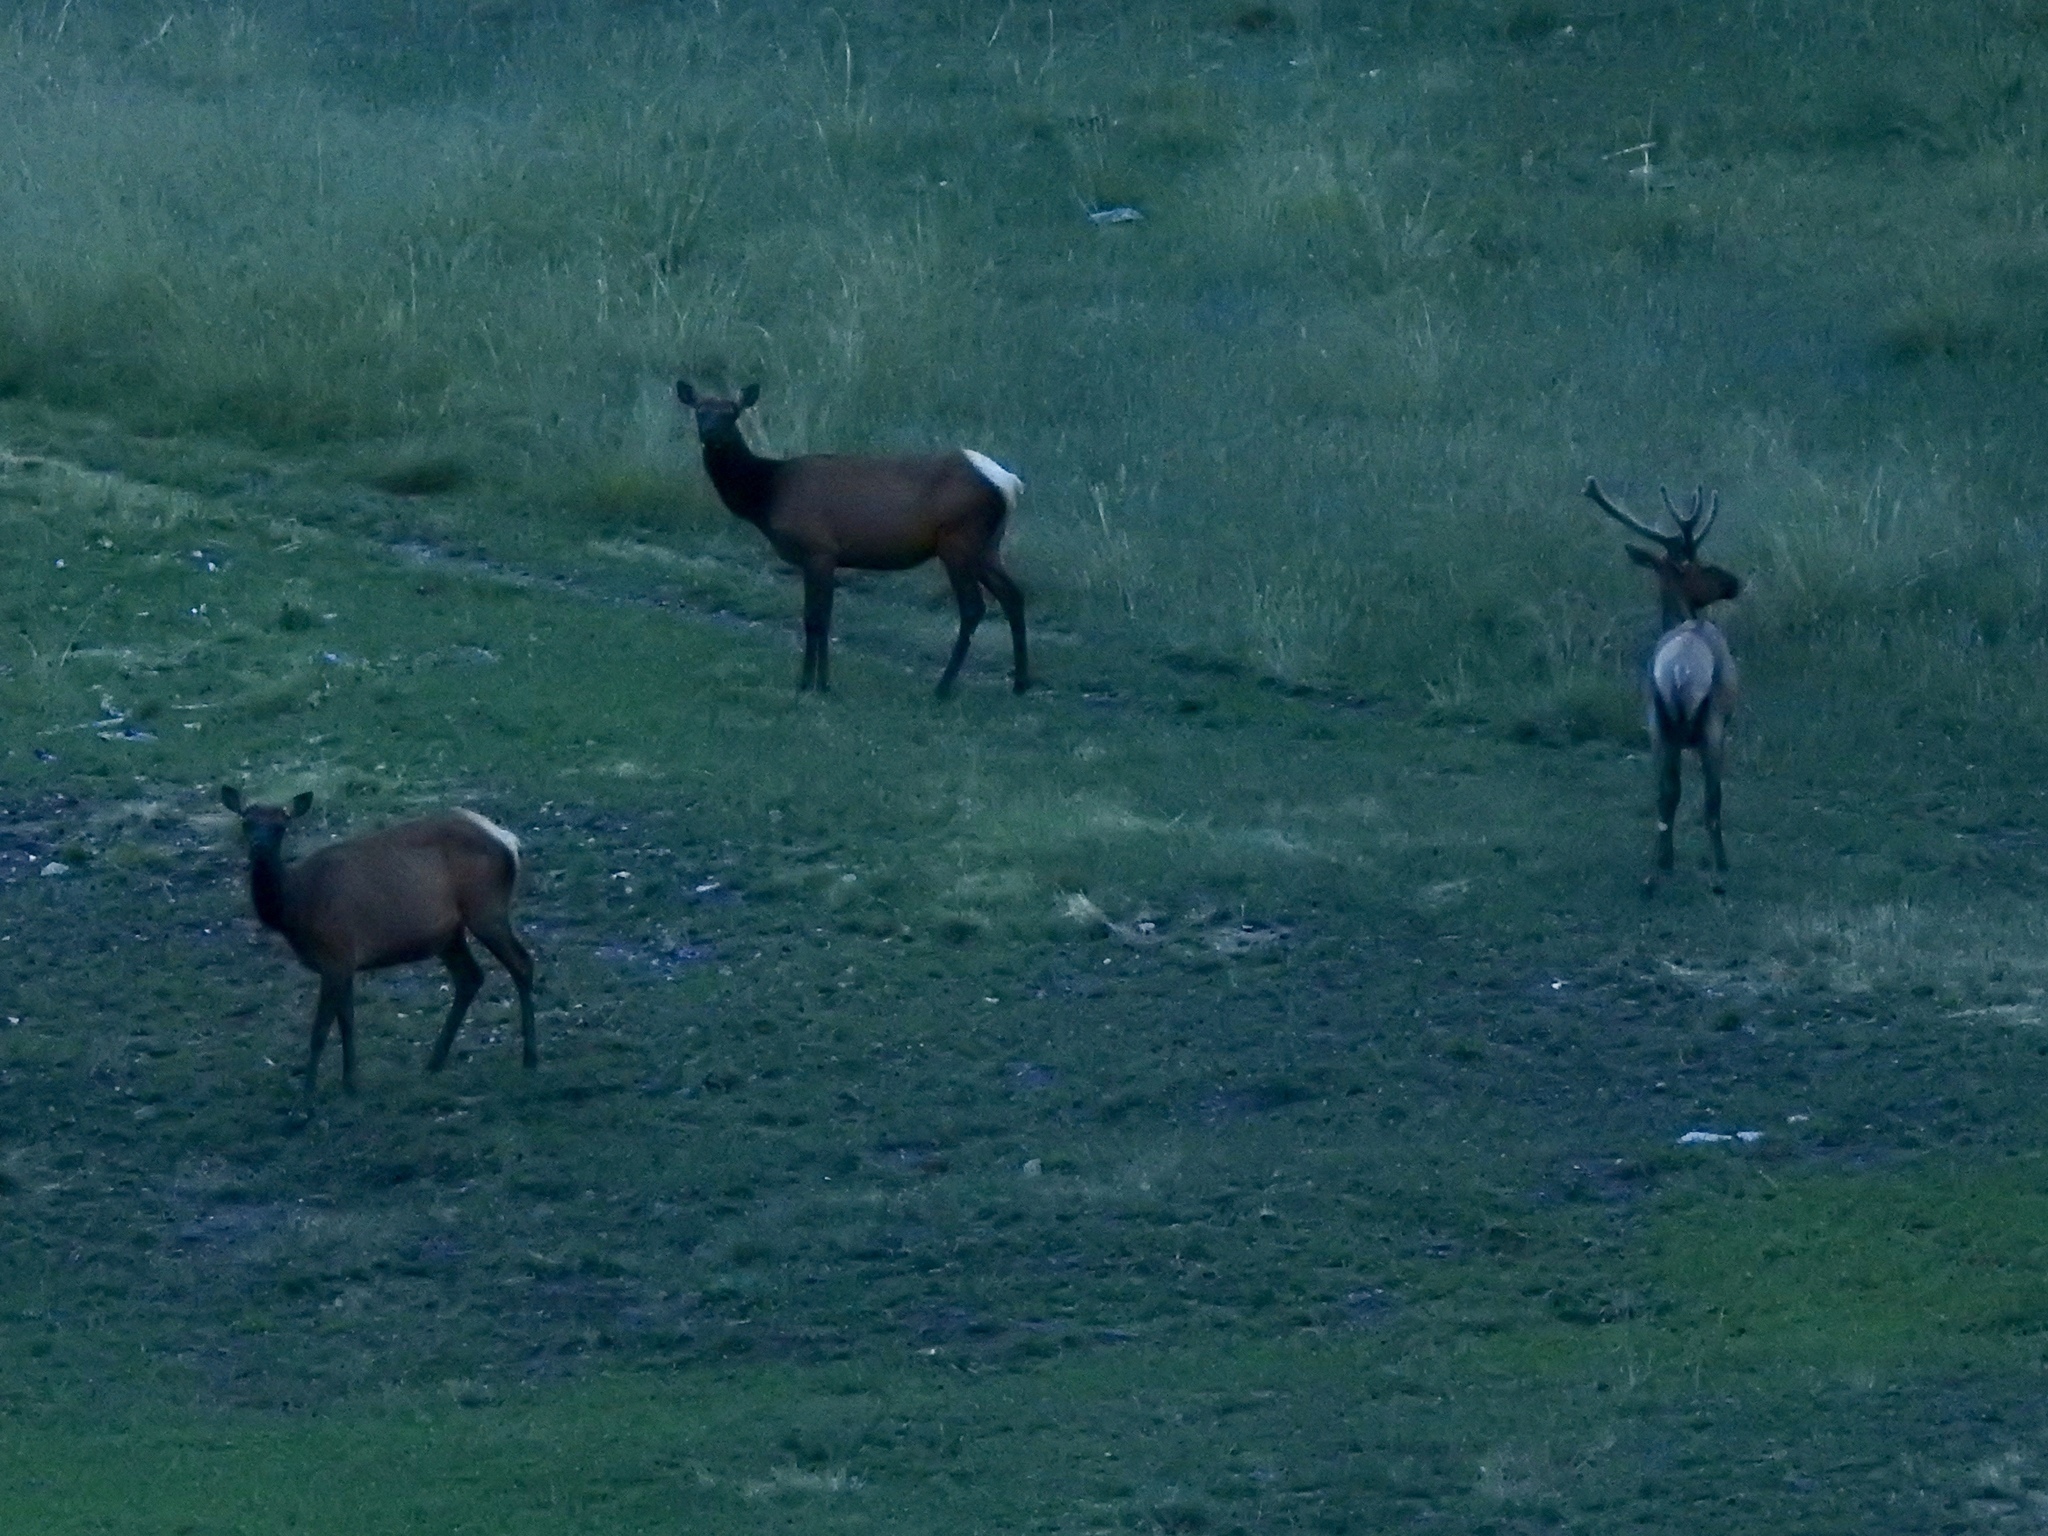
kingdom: Animalia
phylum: Chordata
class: Mammalia
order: Artiodactyla
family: Cervidae
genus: Cervus
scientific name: Cervus elaphus
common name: Red deer
